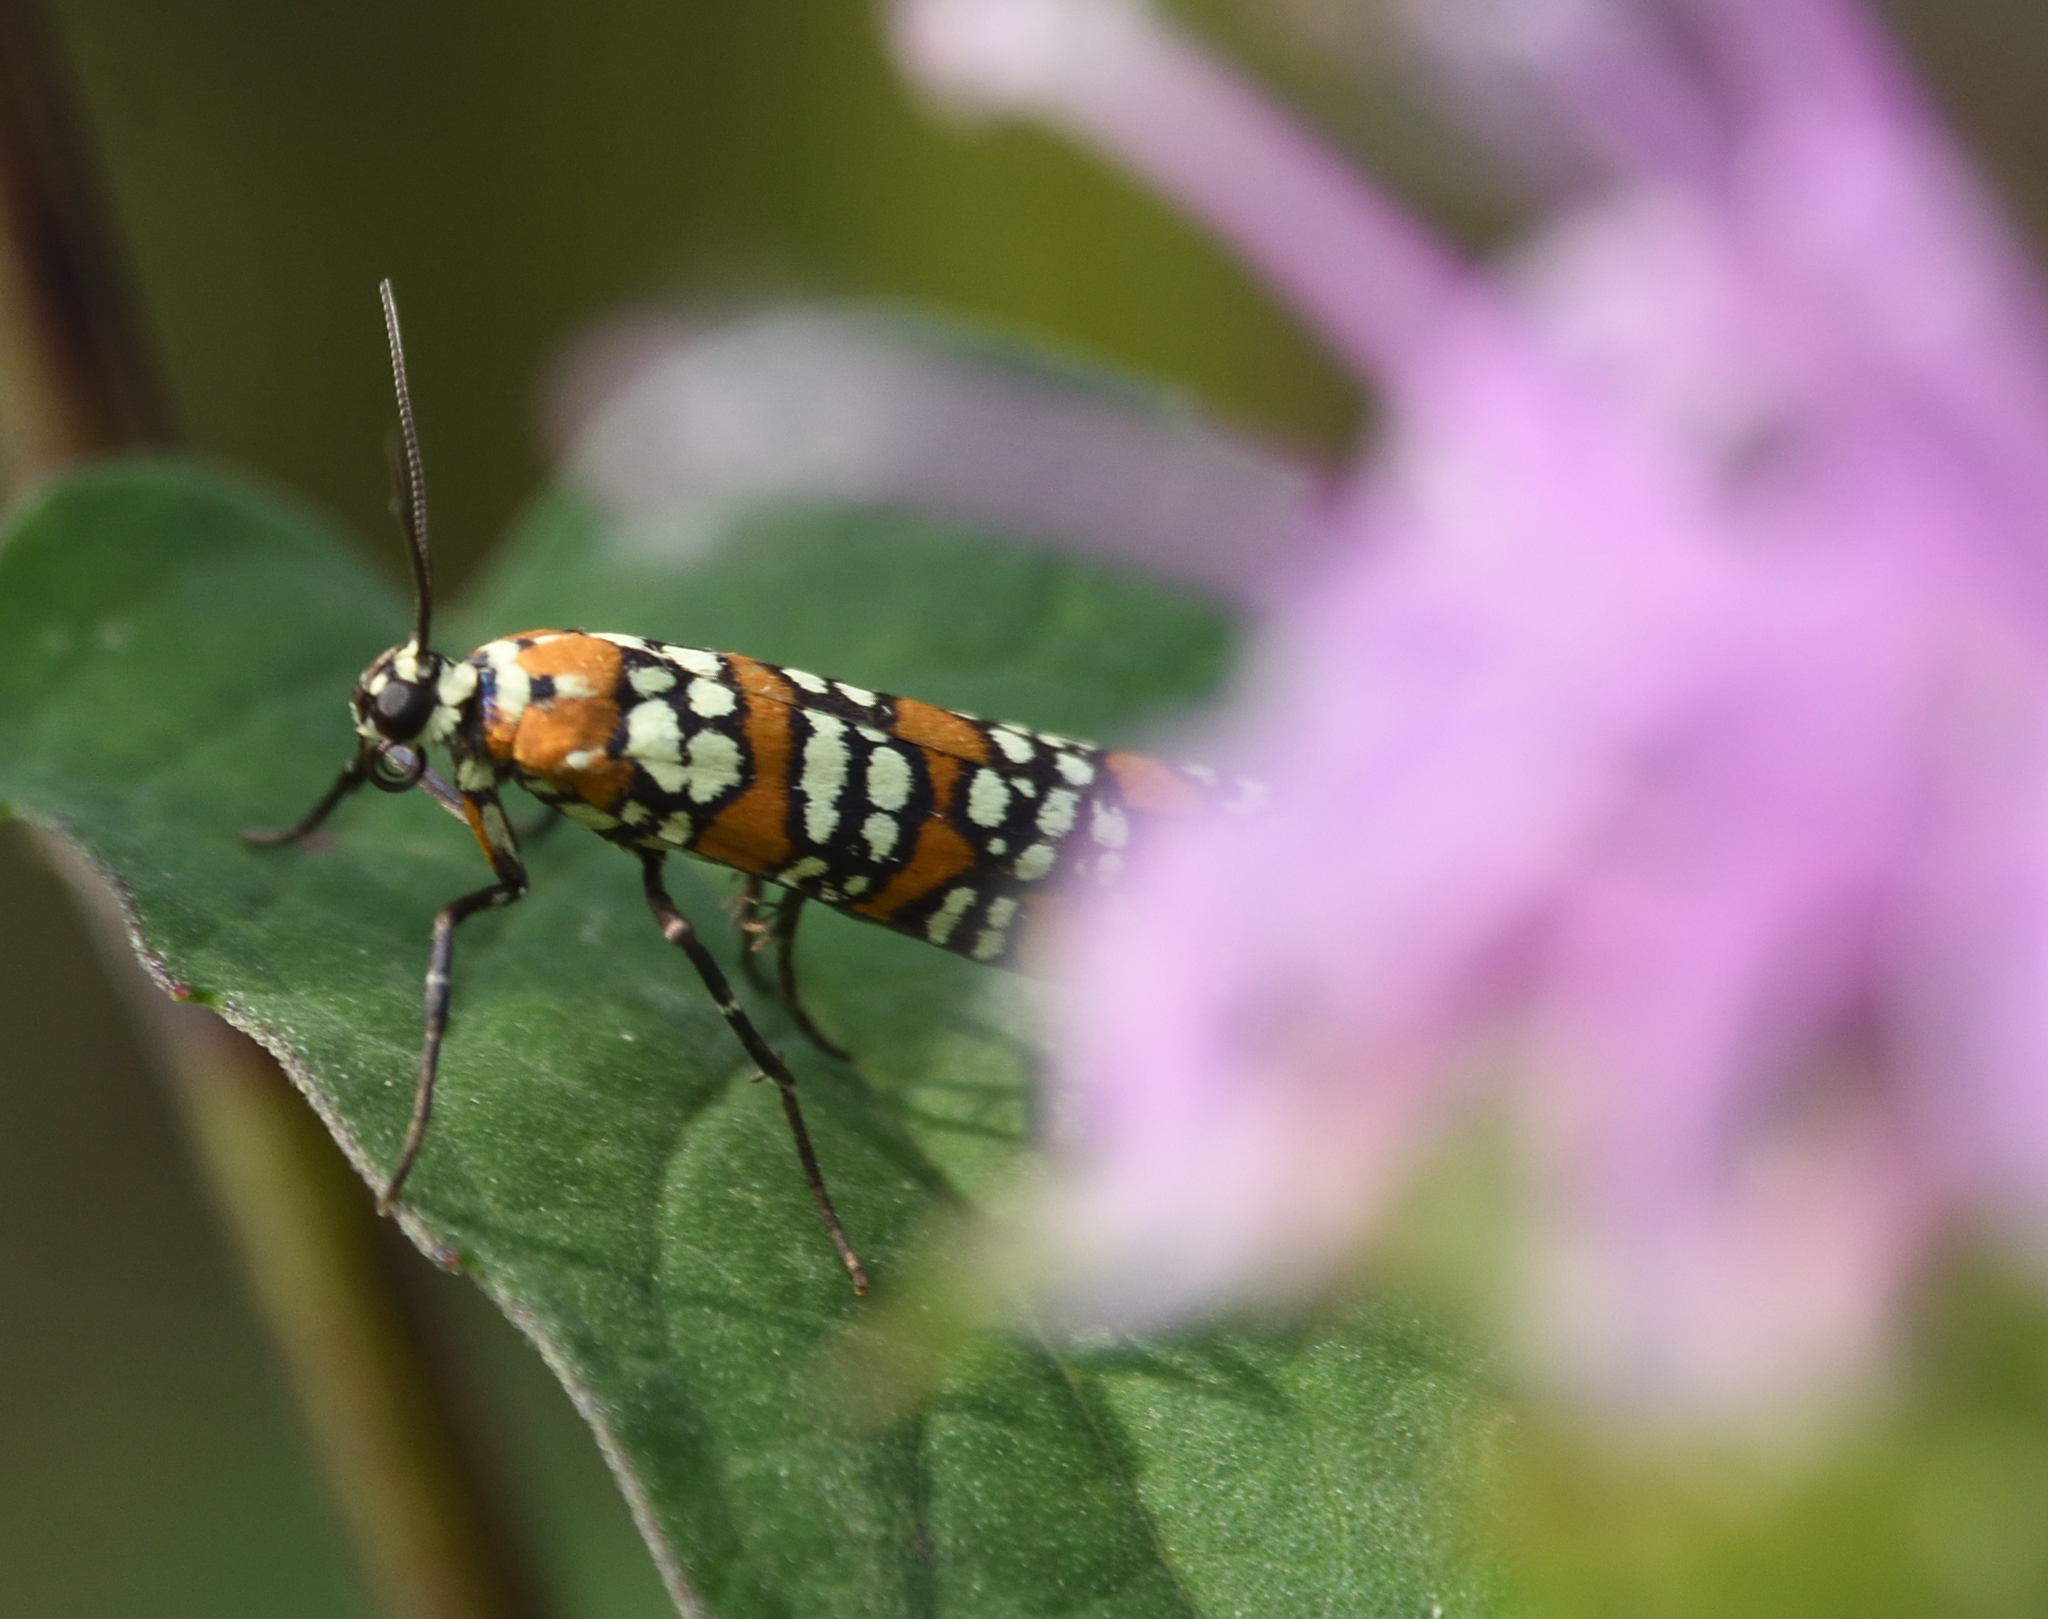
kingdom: Animalia
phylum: Arthropoda
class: Insecta
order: Lepidoptera
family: Attevidae
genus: Atteva
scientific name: Atteva punctella
